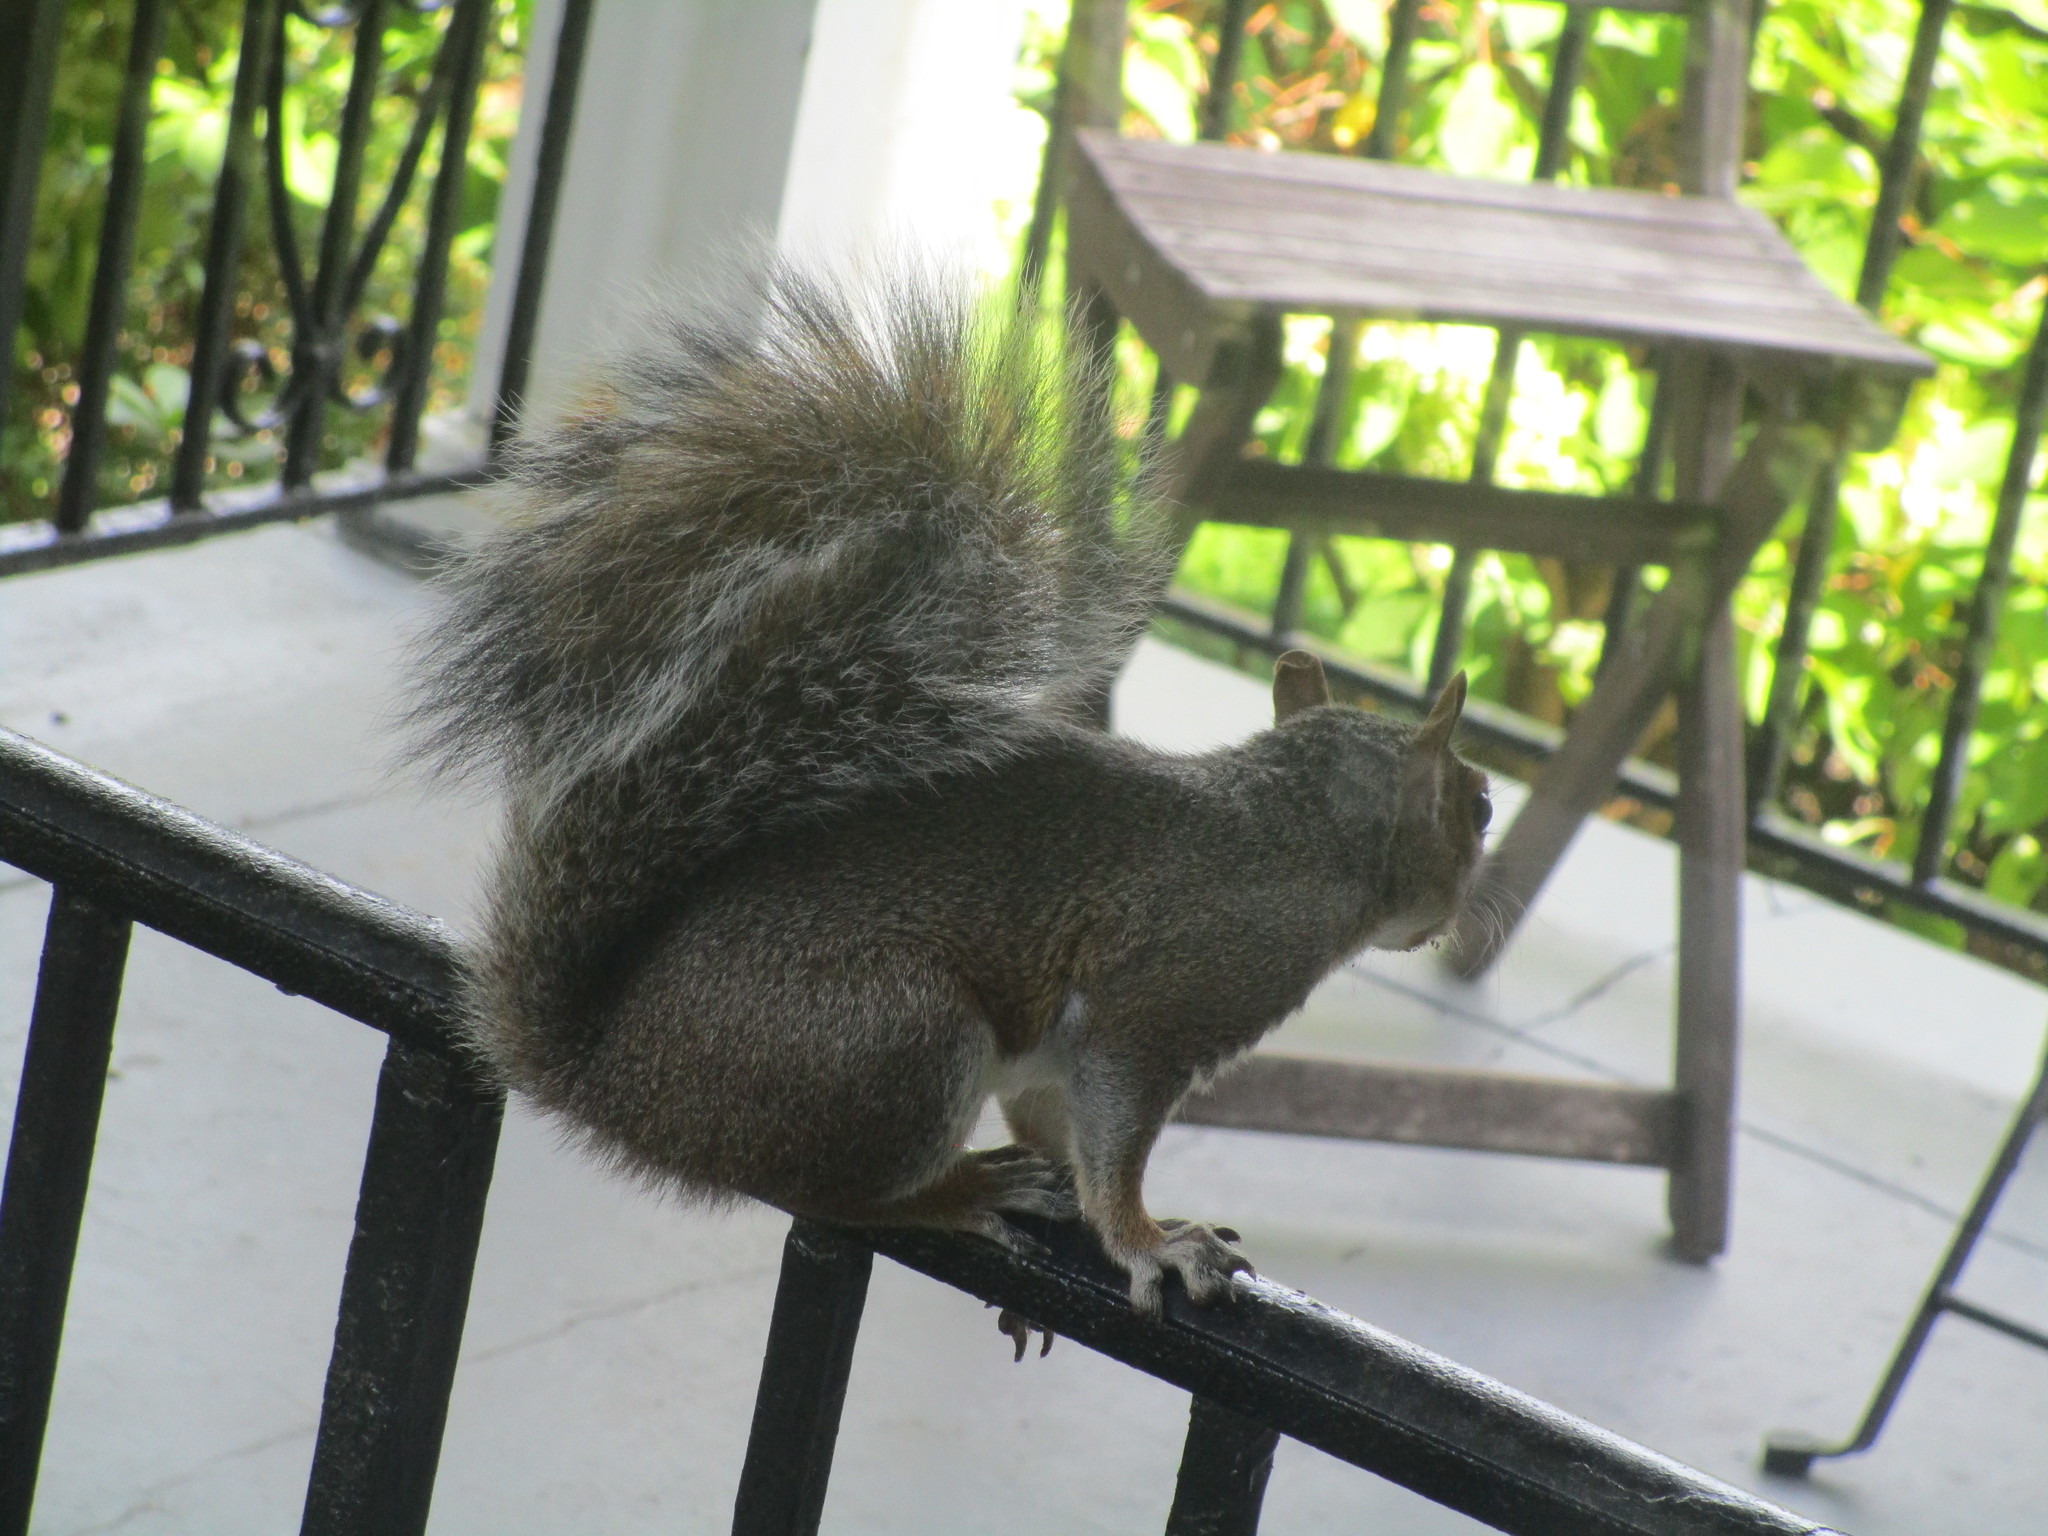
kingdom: Animalia
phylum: Chordata
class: Mammalia
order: Rodentia
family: Sciuridae
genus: Sciurus
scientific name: Sciurus carolinensis
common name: Eastern gray squirrel
